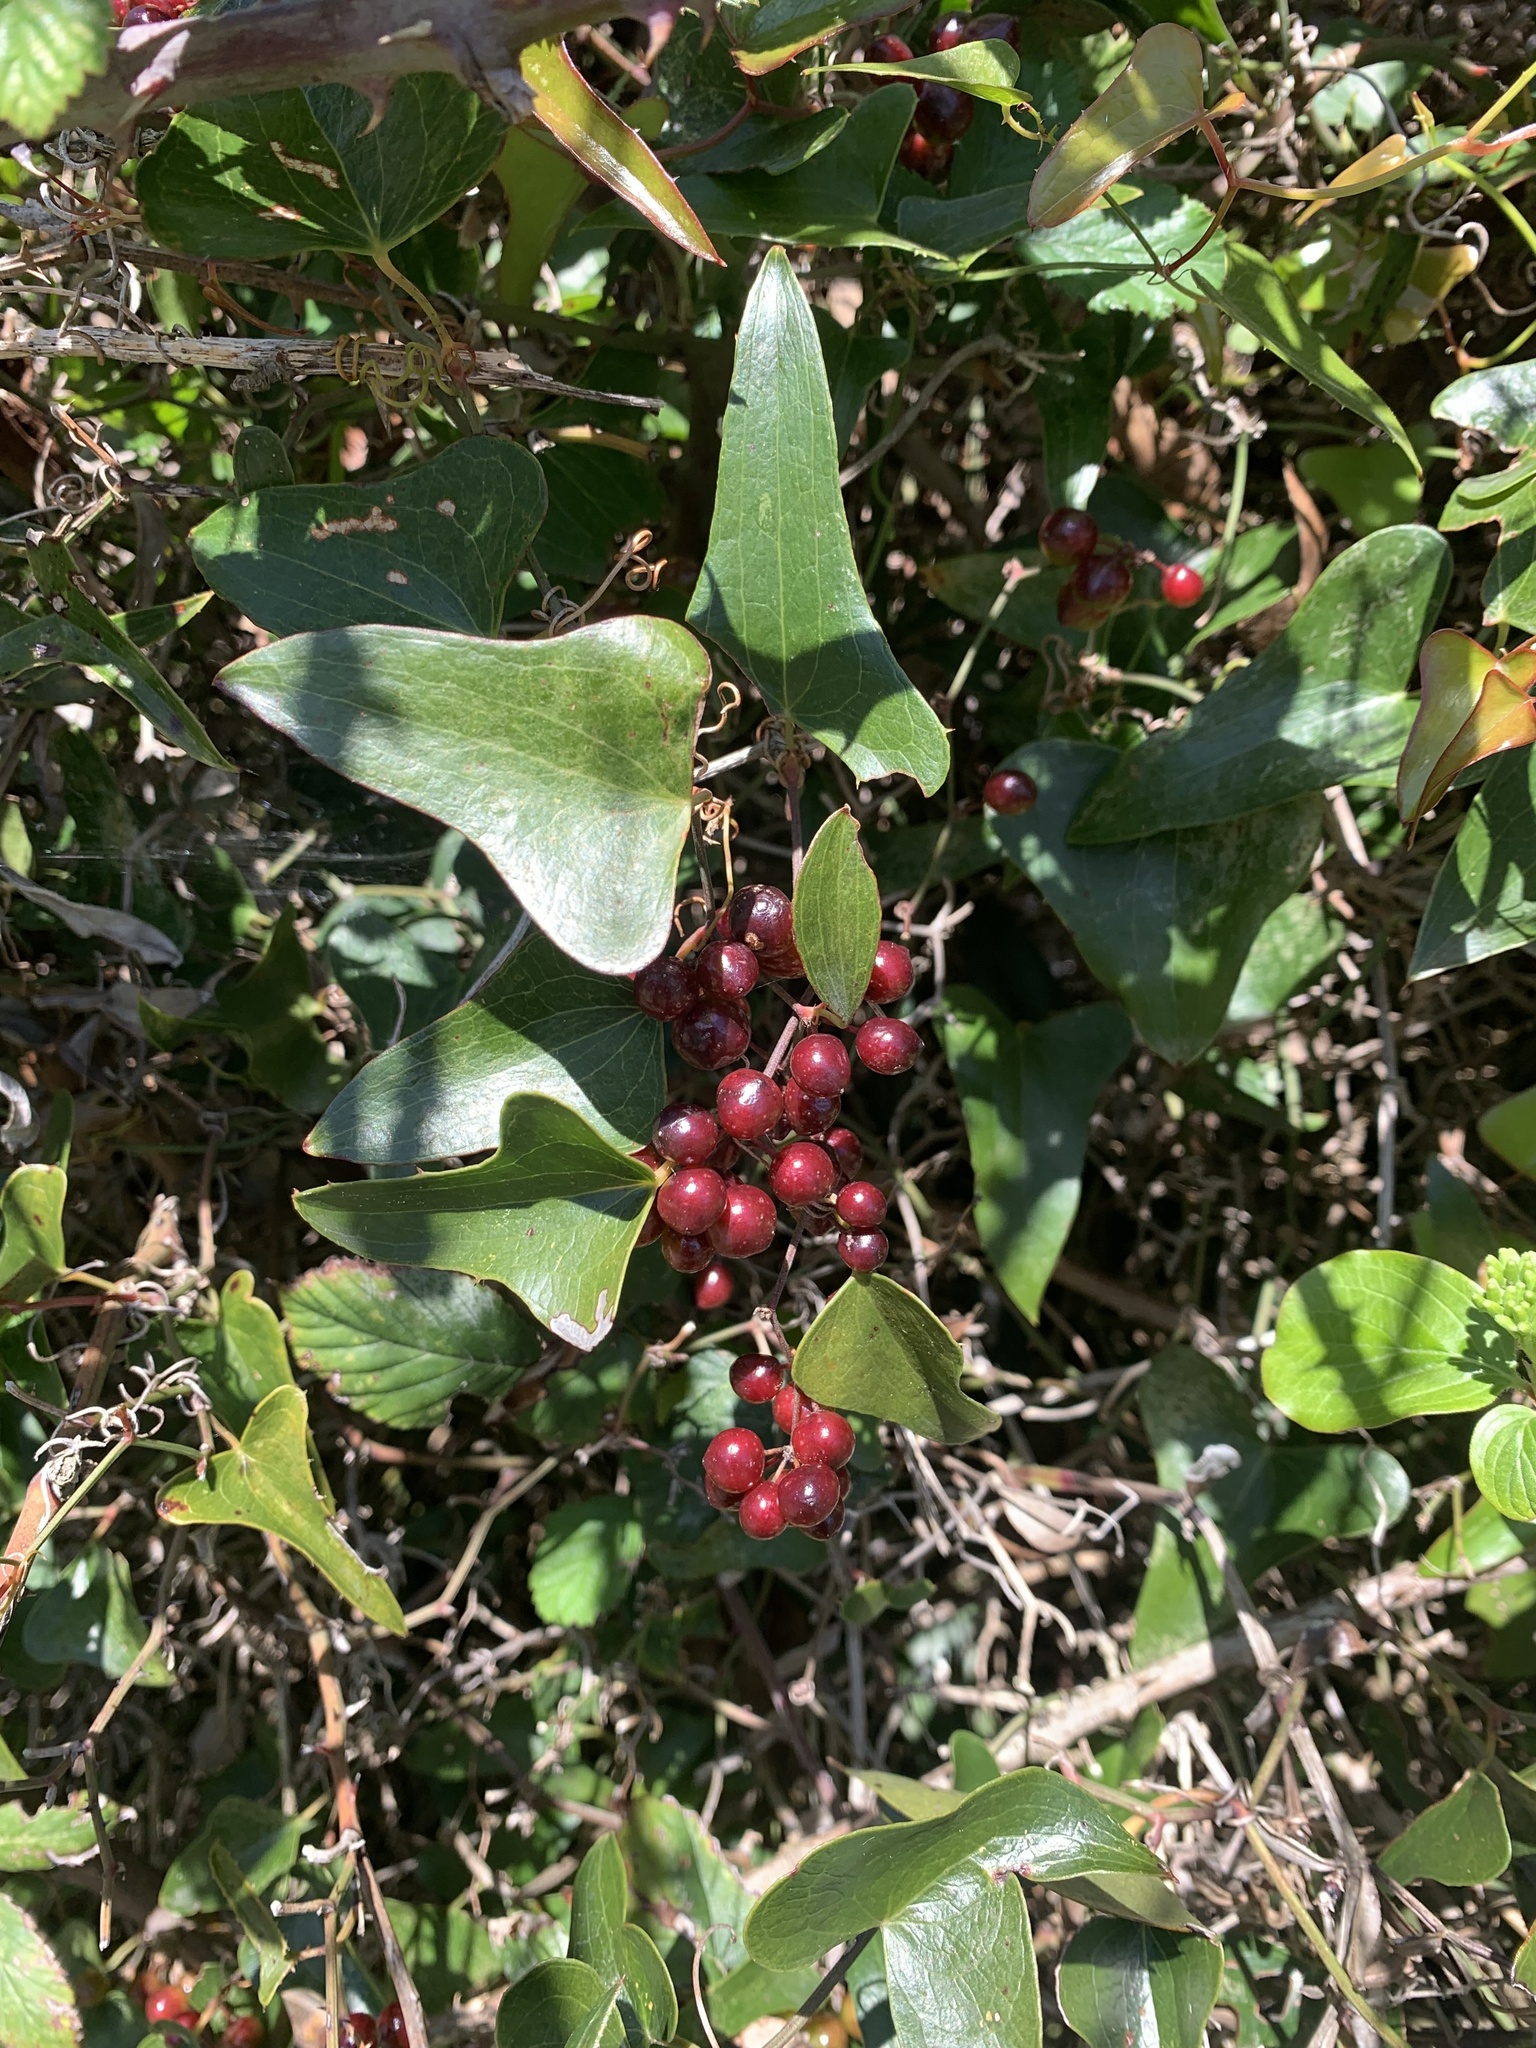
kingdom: Plantae
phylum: Tracheophyta
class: Liliopsida
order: Liliales
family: Smilacaceae
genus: Smilax
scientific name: Smilax aspera
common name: Common smilax
